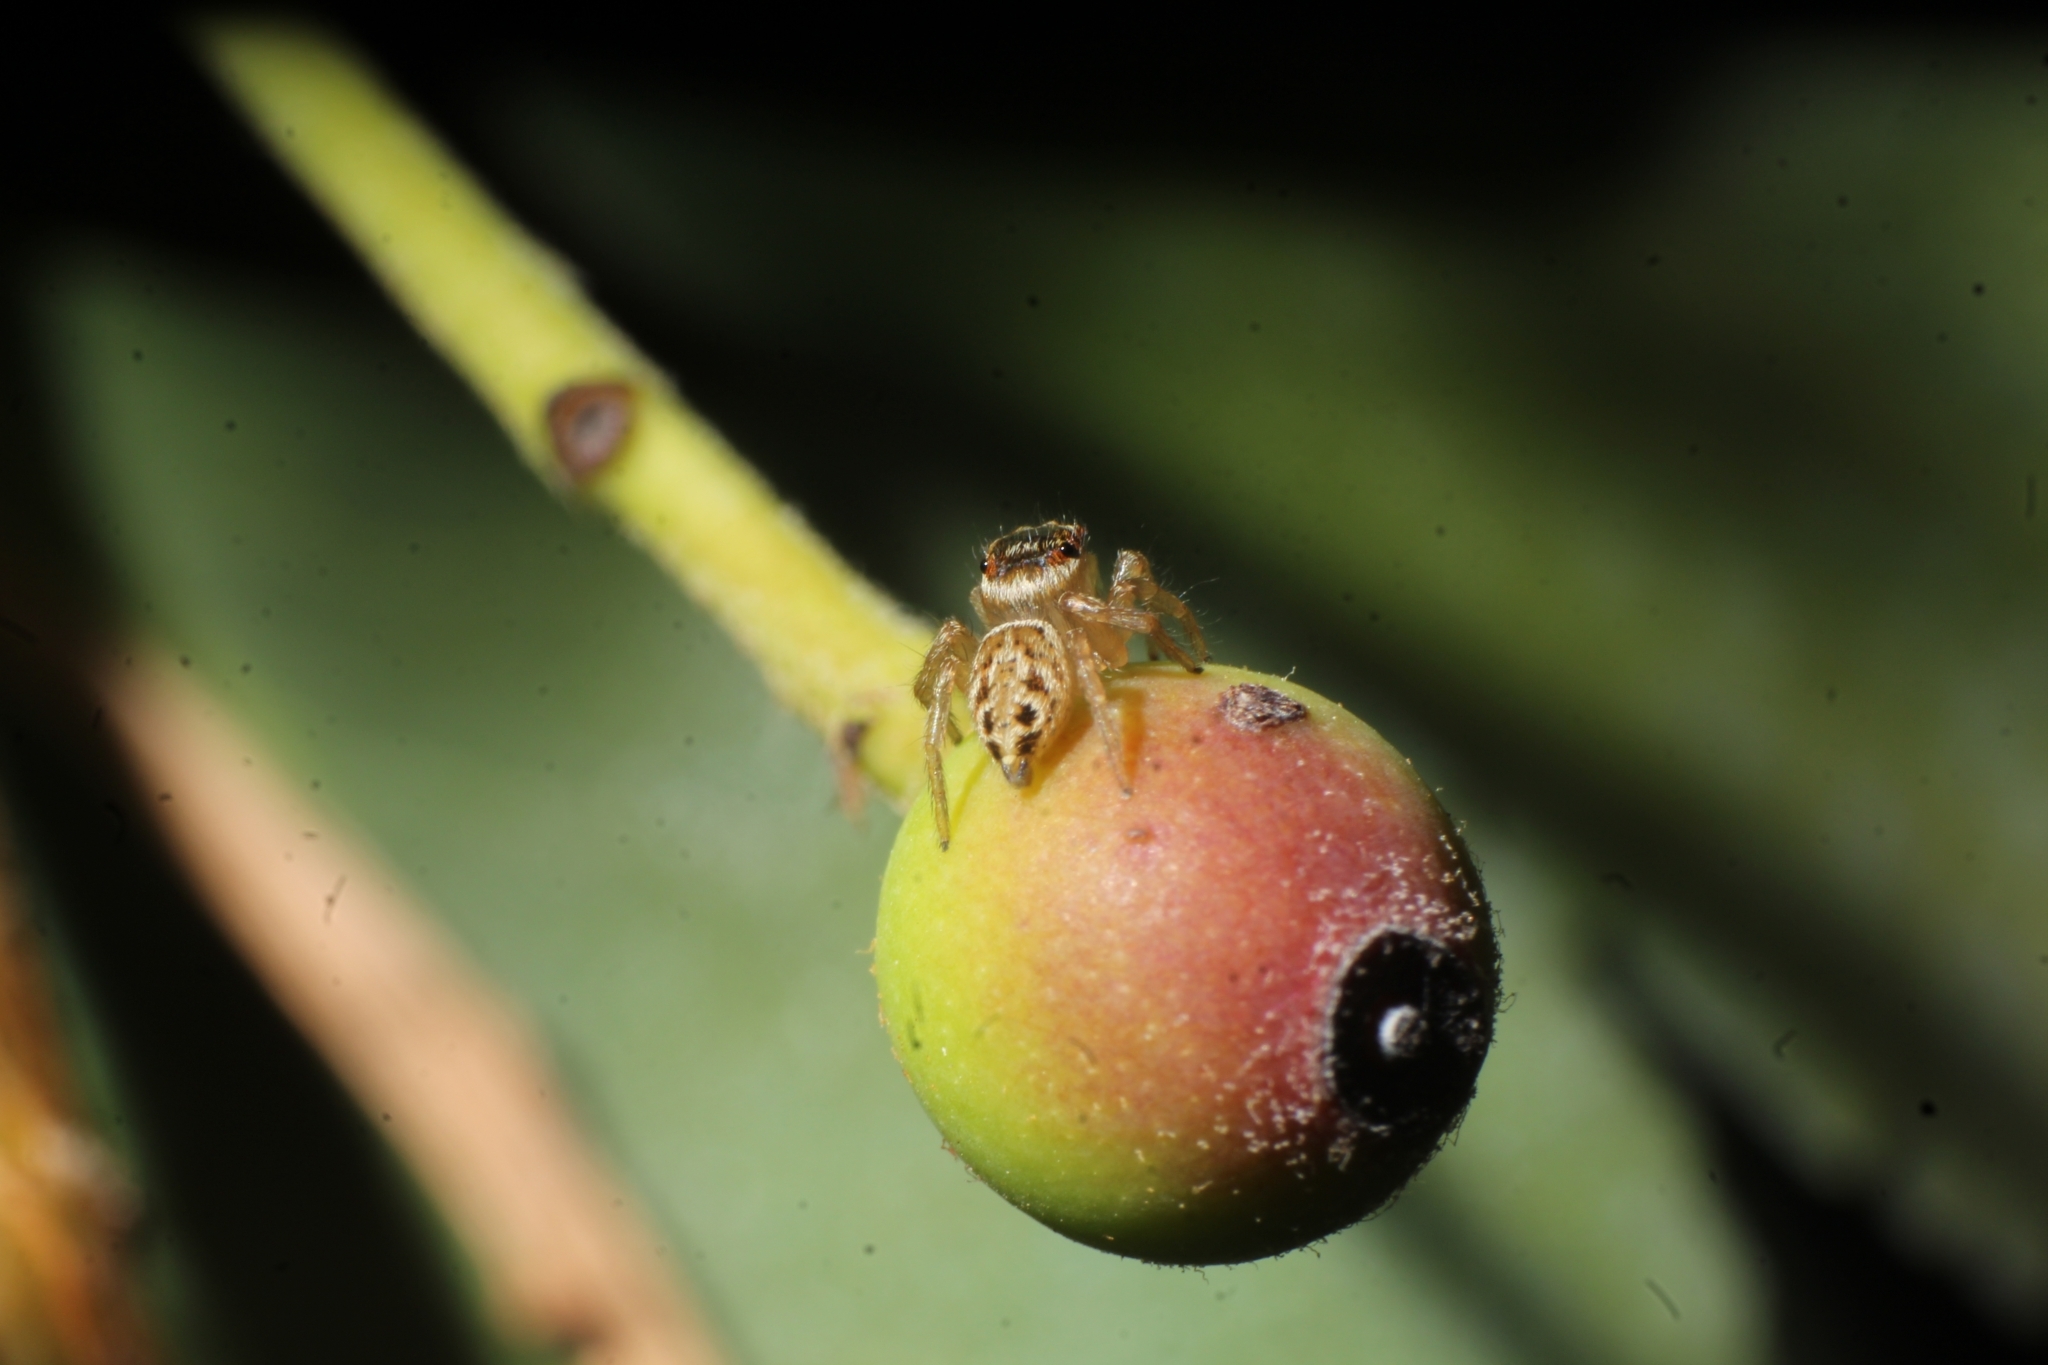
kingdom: Animalia
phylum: Arthropoda
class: Arachnida
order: Araneae
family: Salticidae
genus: Maratus
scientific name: Maratus griseus
